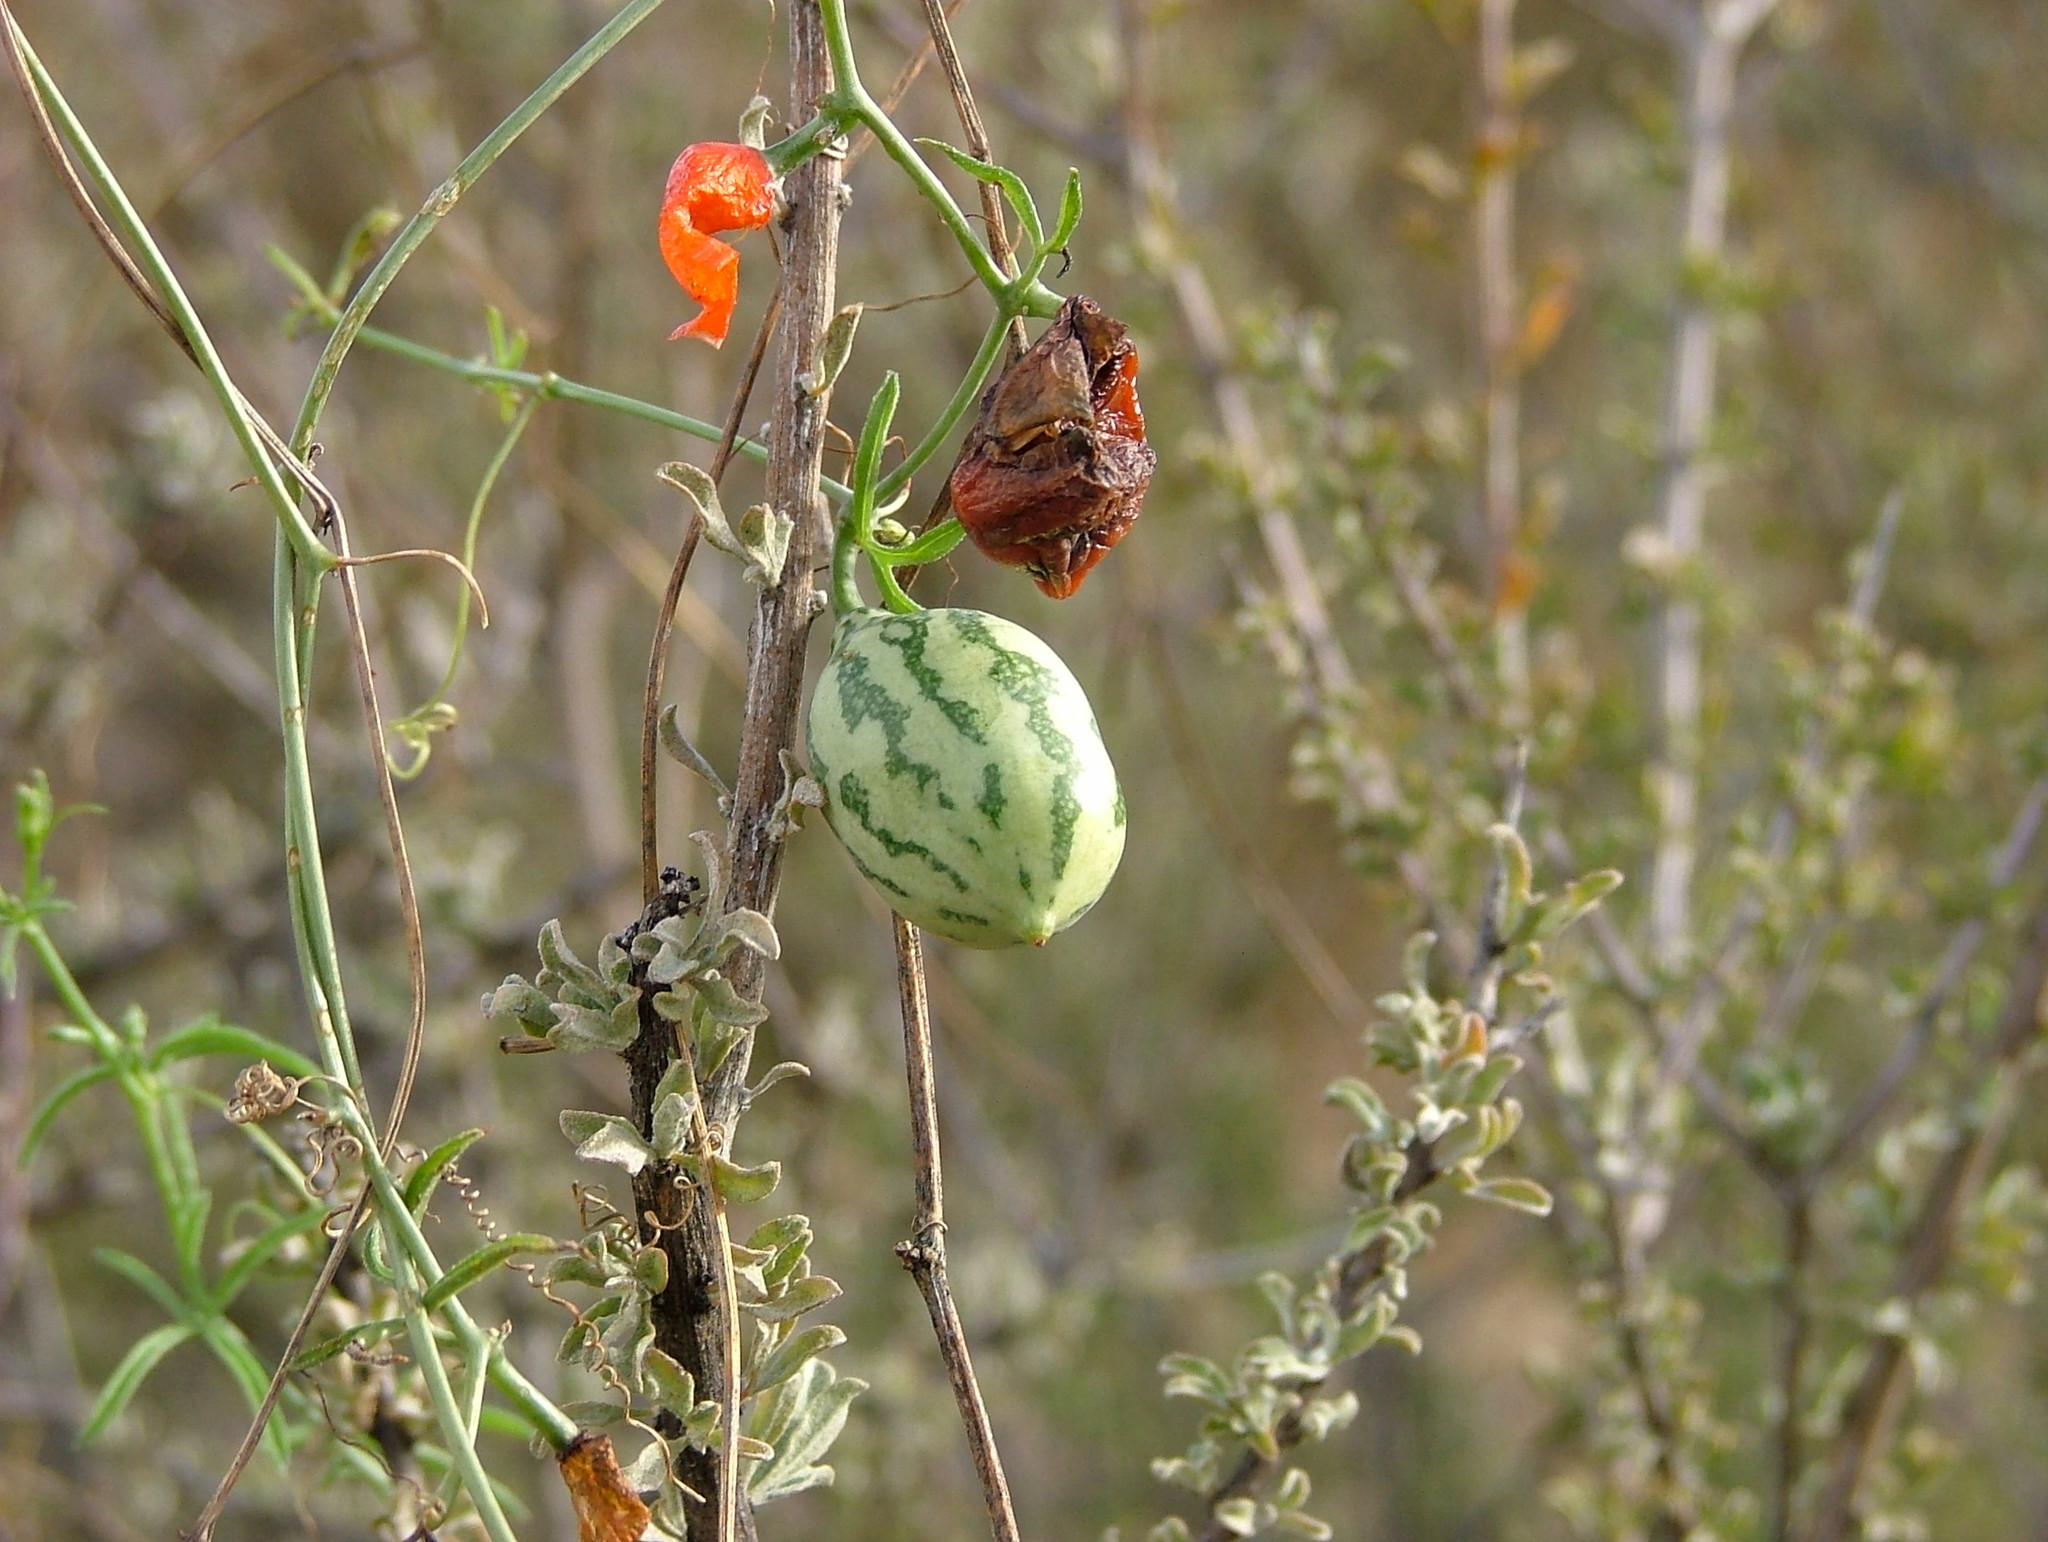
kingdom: Plantae
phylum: Tracheophyta
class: Magnoliopsida
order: Cucurbitales
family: Cucurbitaceae
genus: Trochomeria
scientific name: Trochomeria macrocarpa
